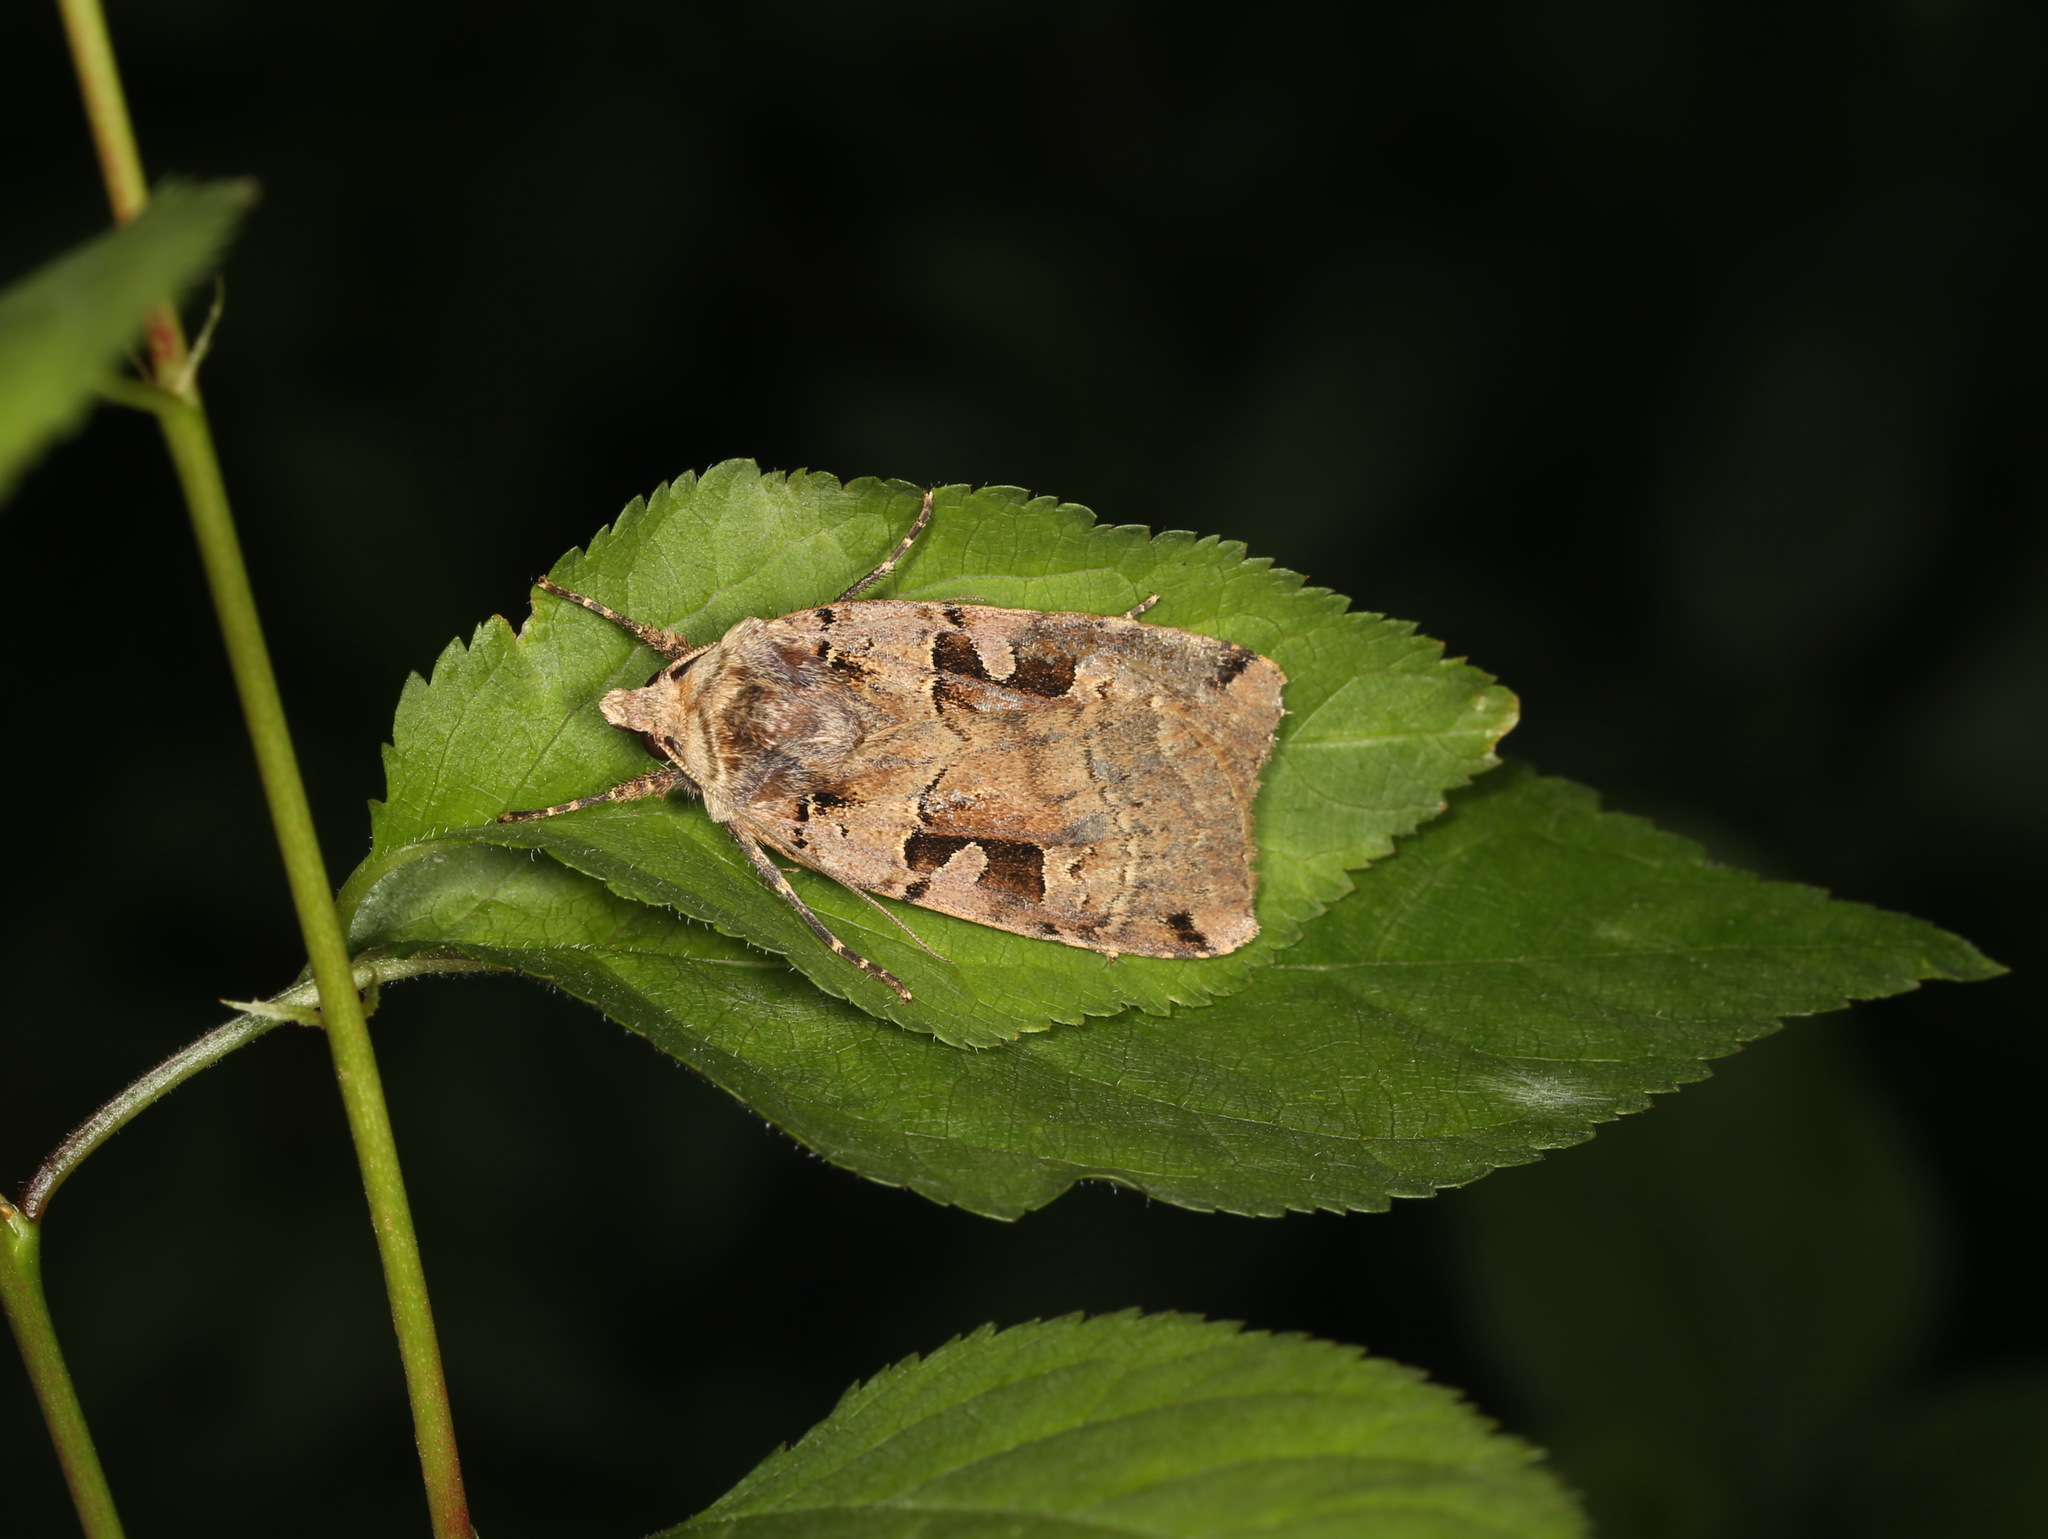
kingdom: Animalia
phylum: Arthropoda
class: Insecta
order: Lepidoptera
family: Noctuidae
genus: Xestia
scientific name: Xestia triangulum
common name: Double square-spot
